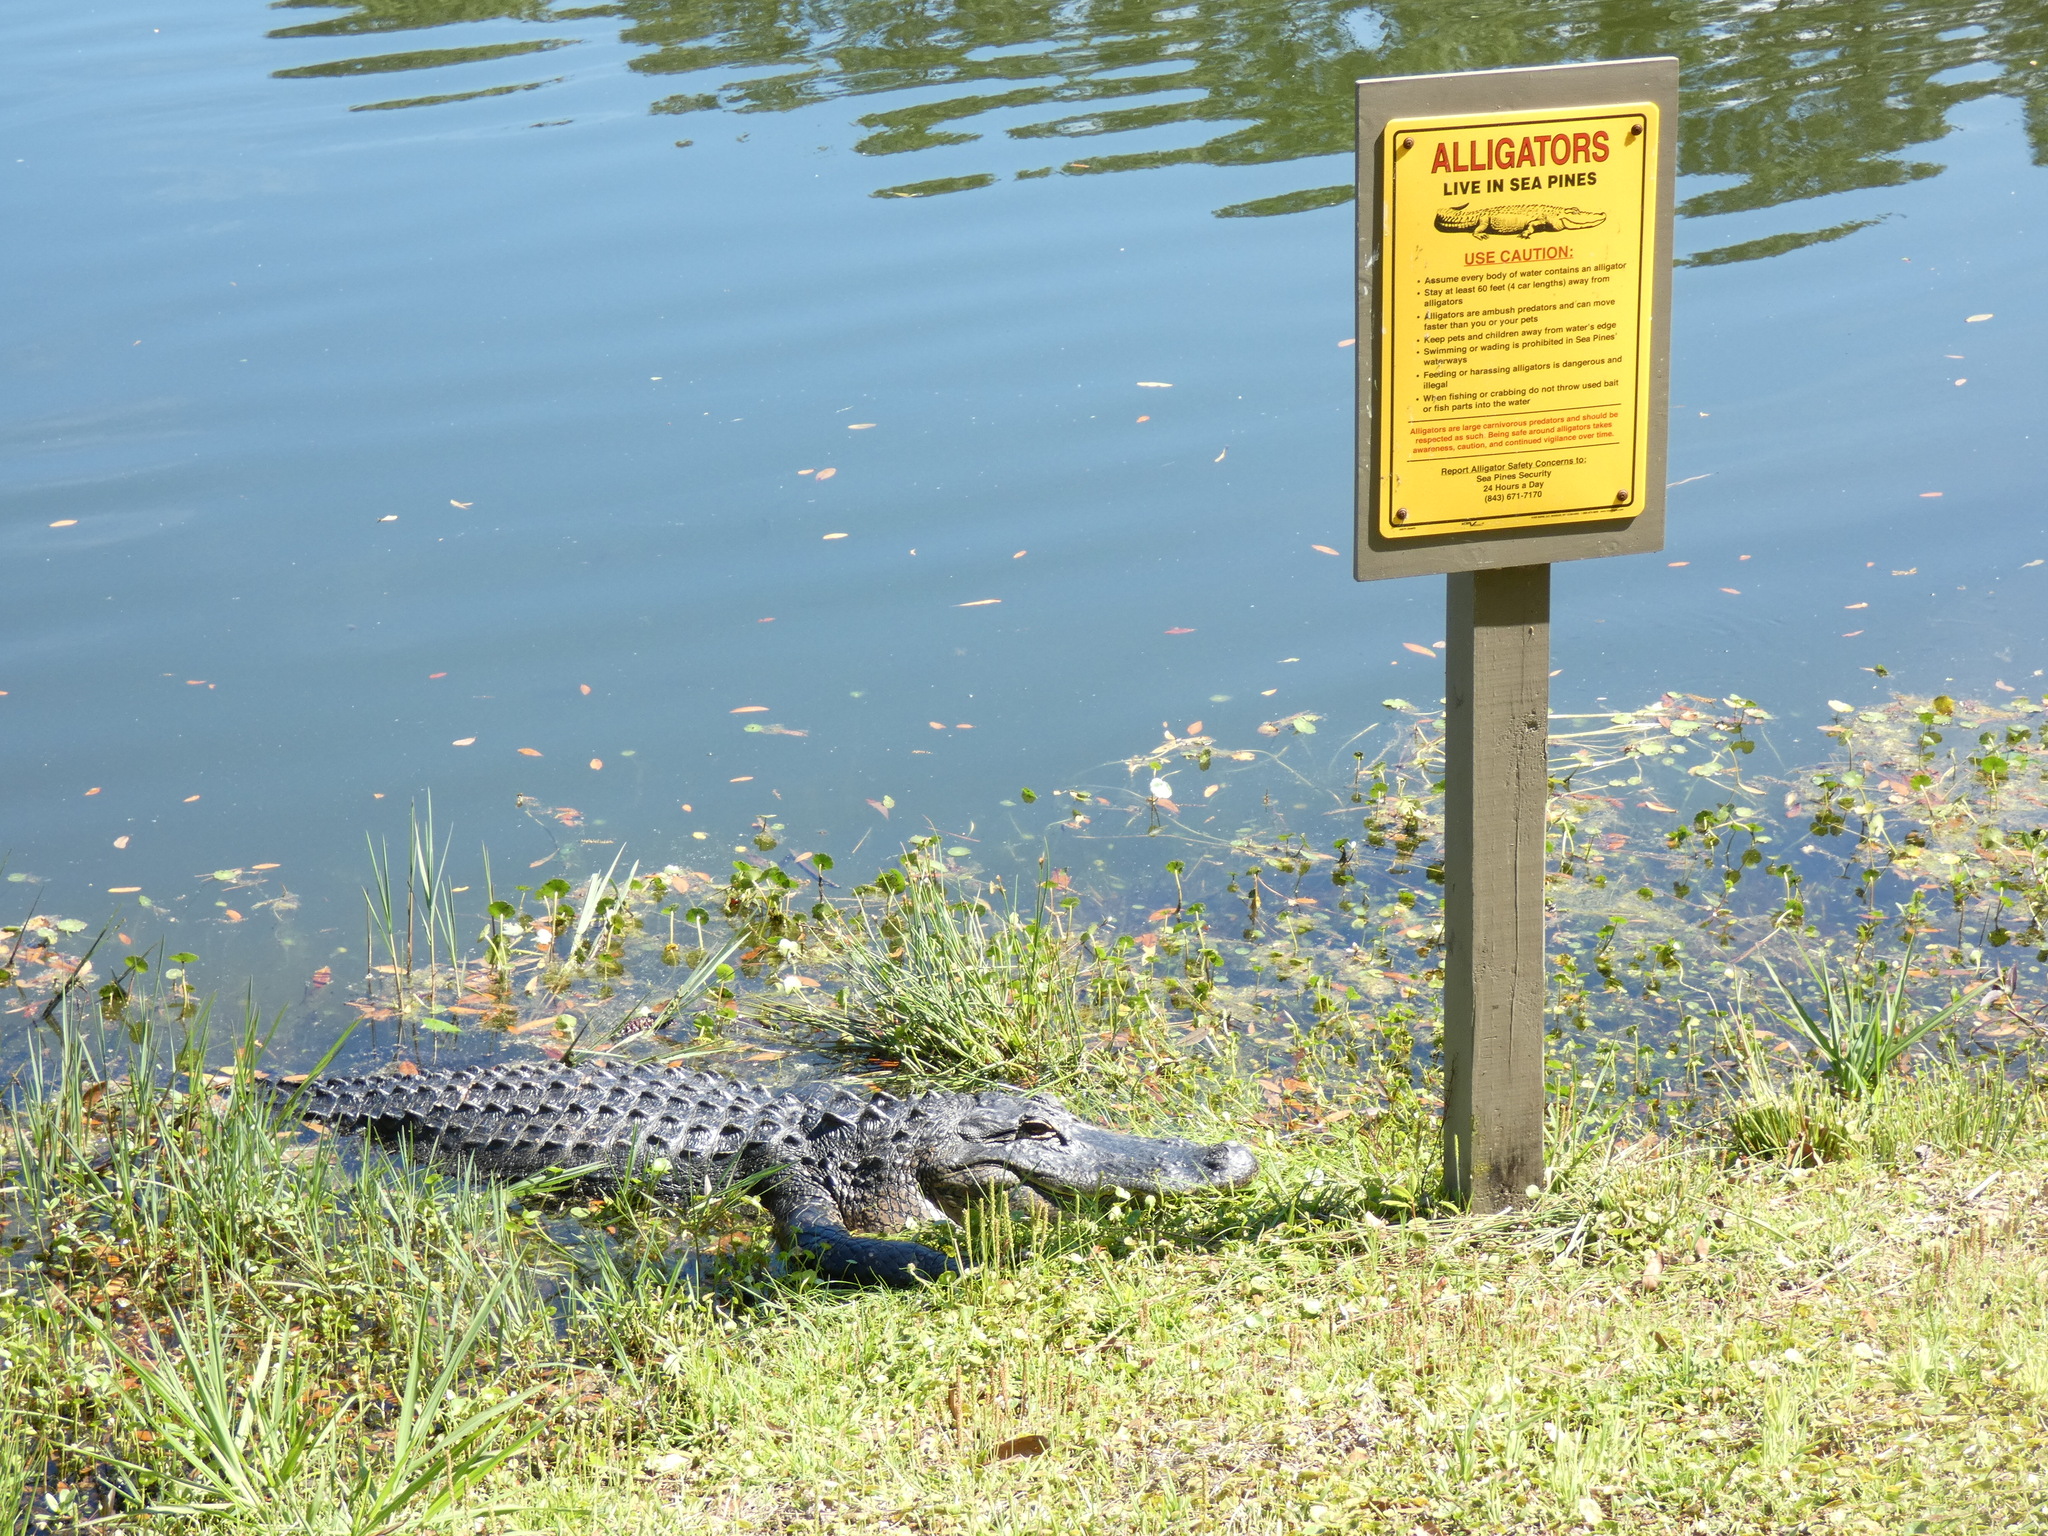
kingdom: Animalia
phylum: Chordata
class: Crocodylia
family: Alligatoridae
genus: Alligator
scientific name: Alligator mississippiensis
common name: American alligator
